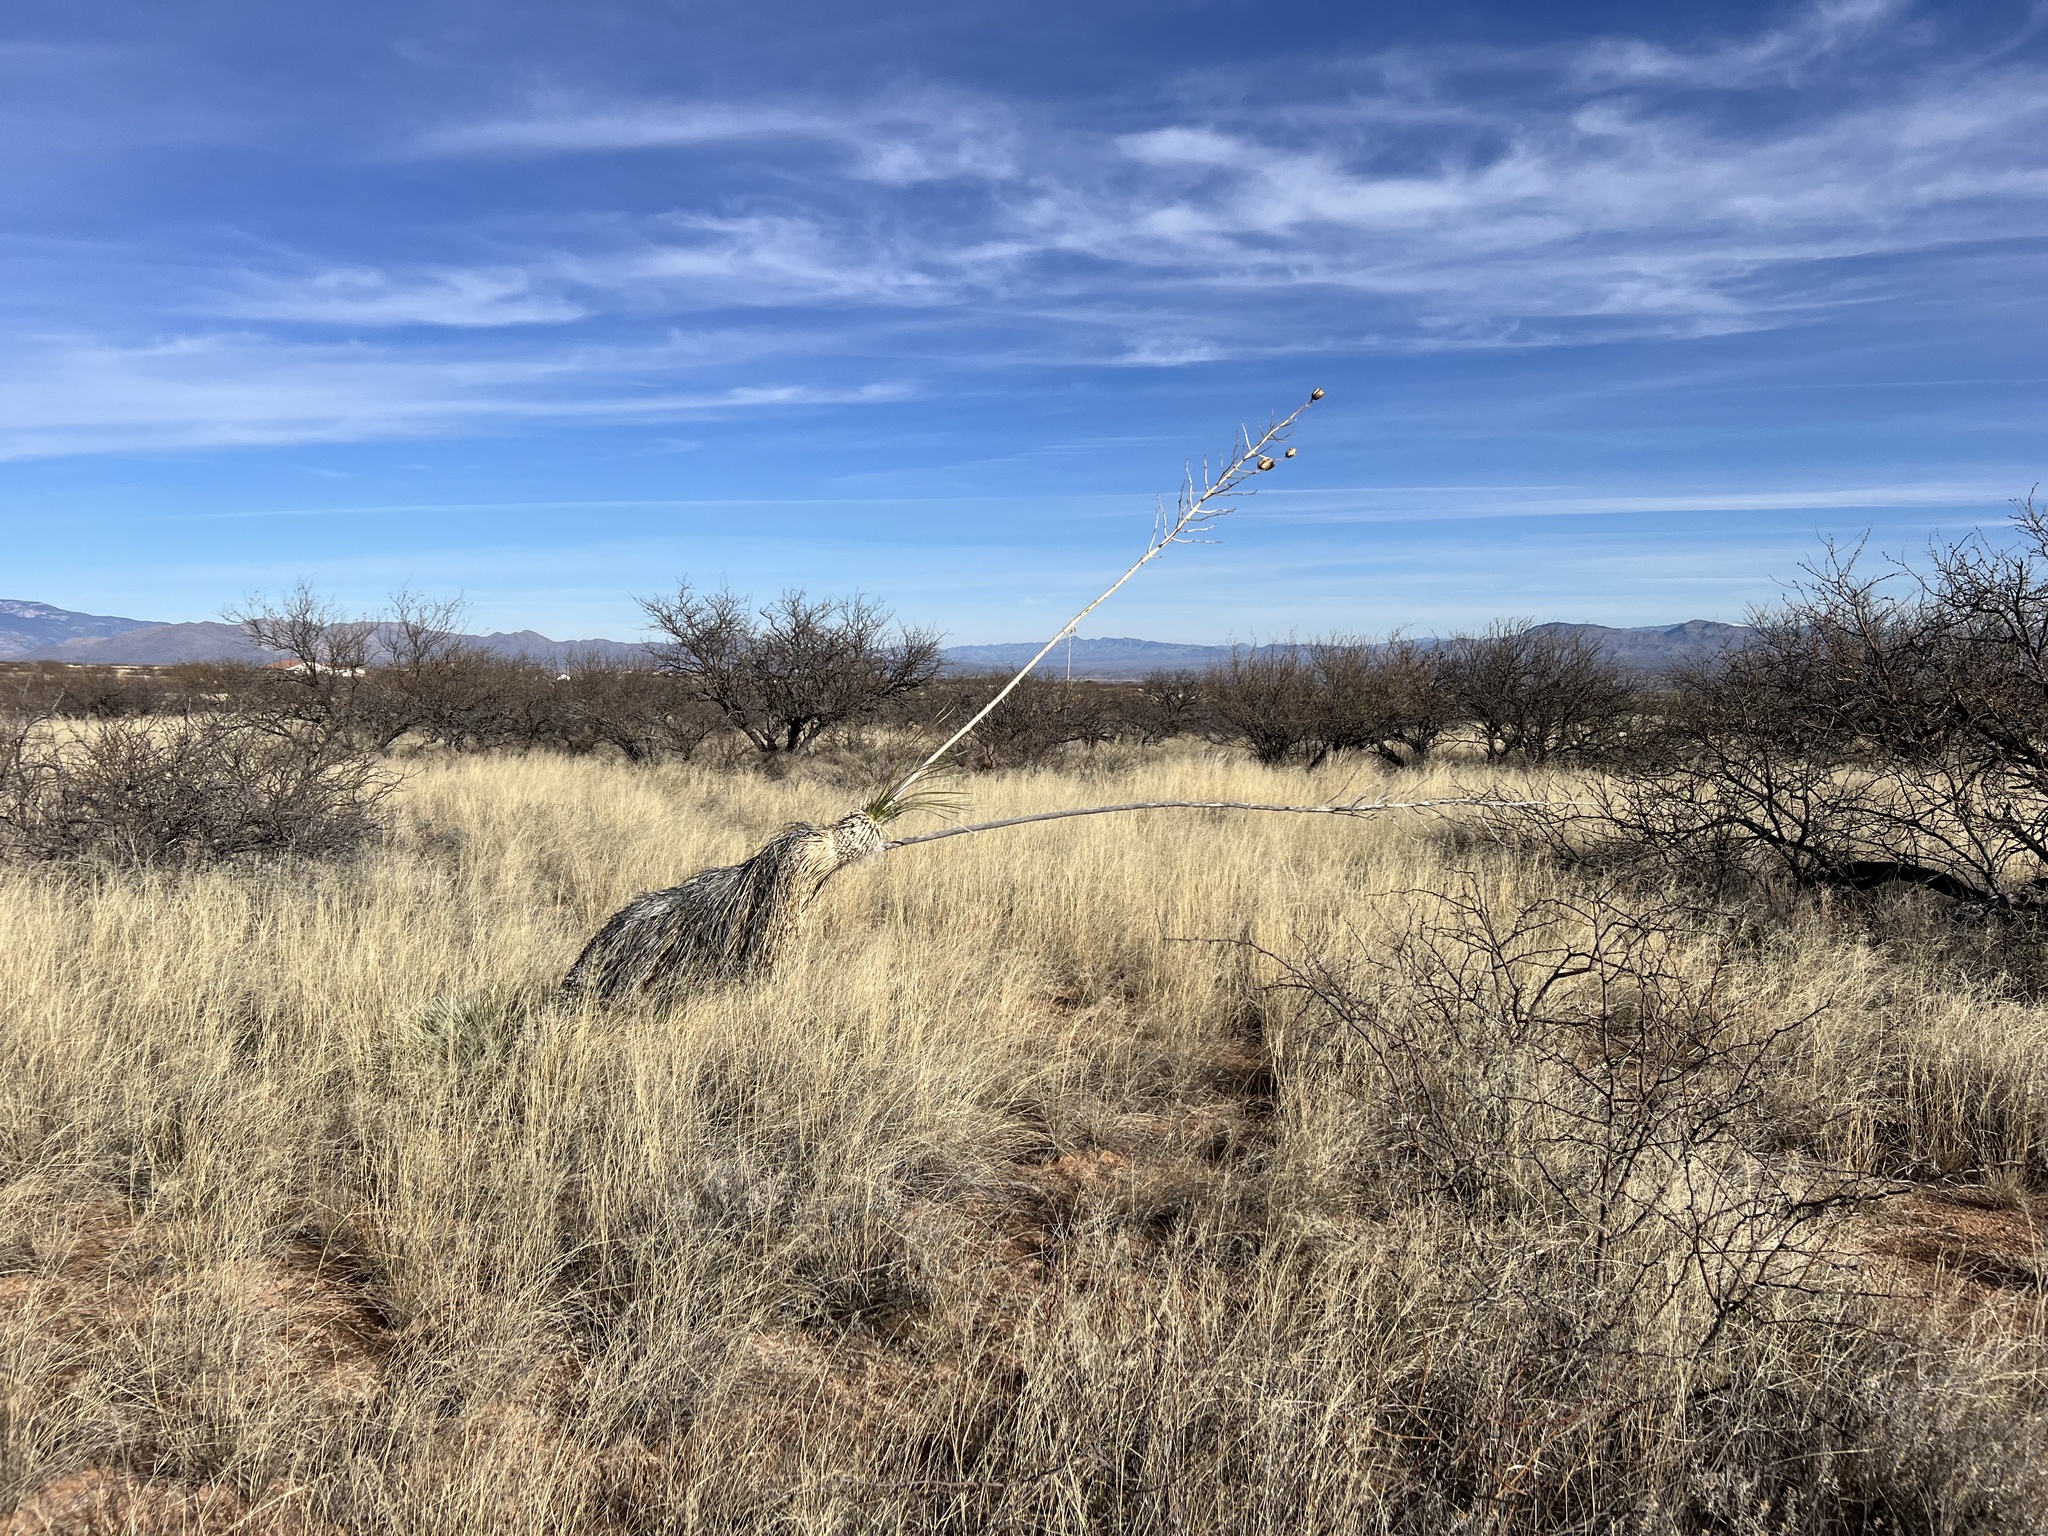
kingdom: Plantae
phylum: Tracheophyta
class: Liliopsida
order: Asparagales
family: Asparagaceae
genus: Yucca
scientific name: Yucca elata
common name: Palmella
